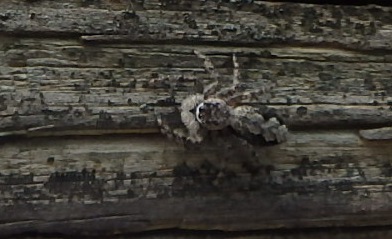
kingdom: Animalia
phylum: Arthropoda
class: Arachnida
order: Araneae
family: Salticidae
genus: Platycryptus
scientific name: Platycryptus undatus
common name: Tan jumping spider
